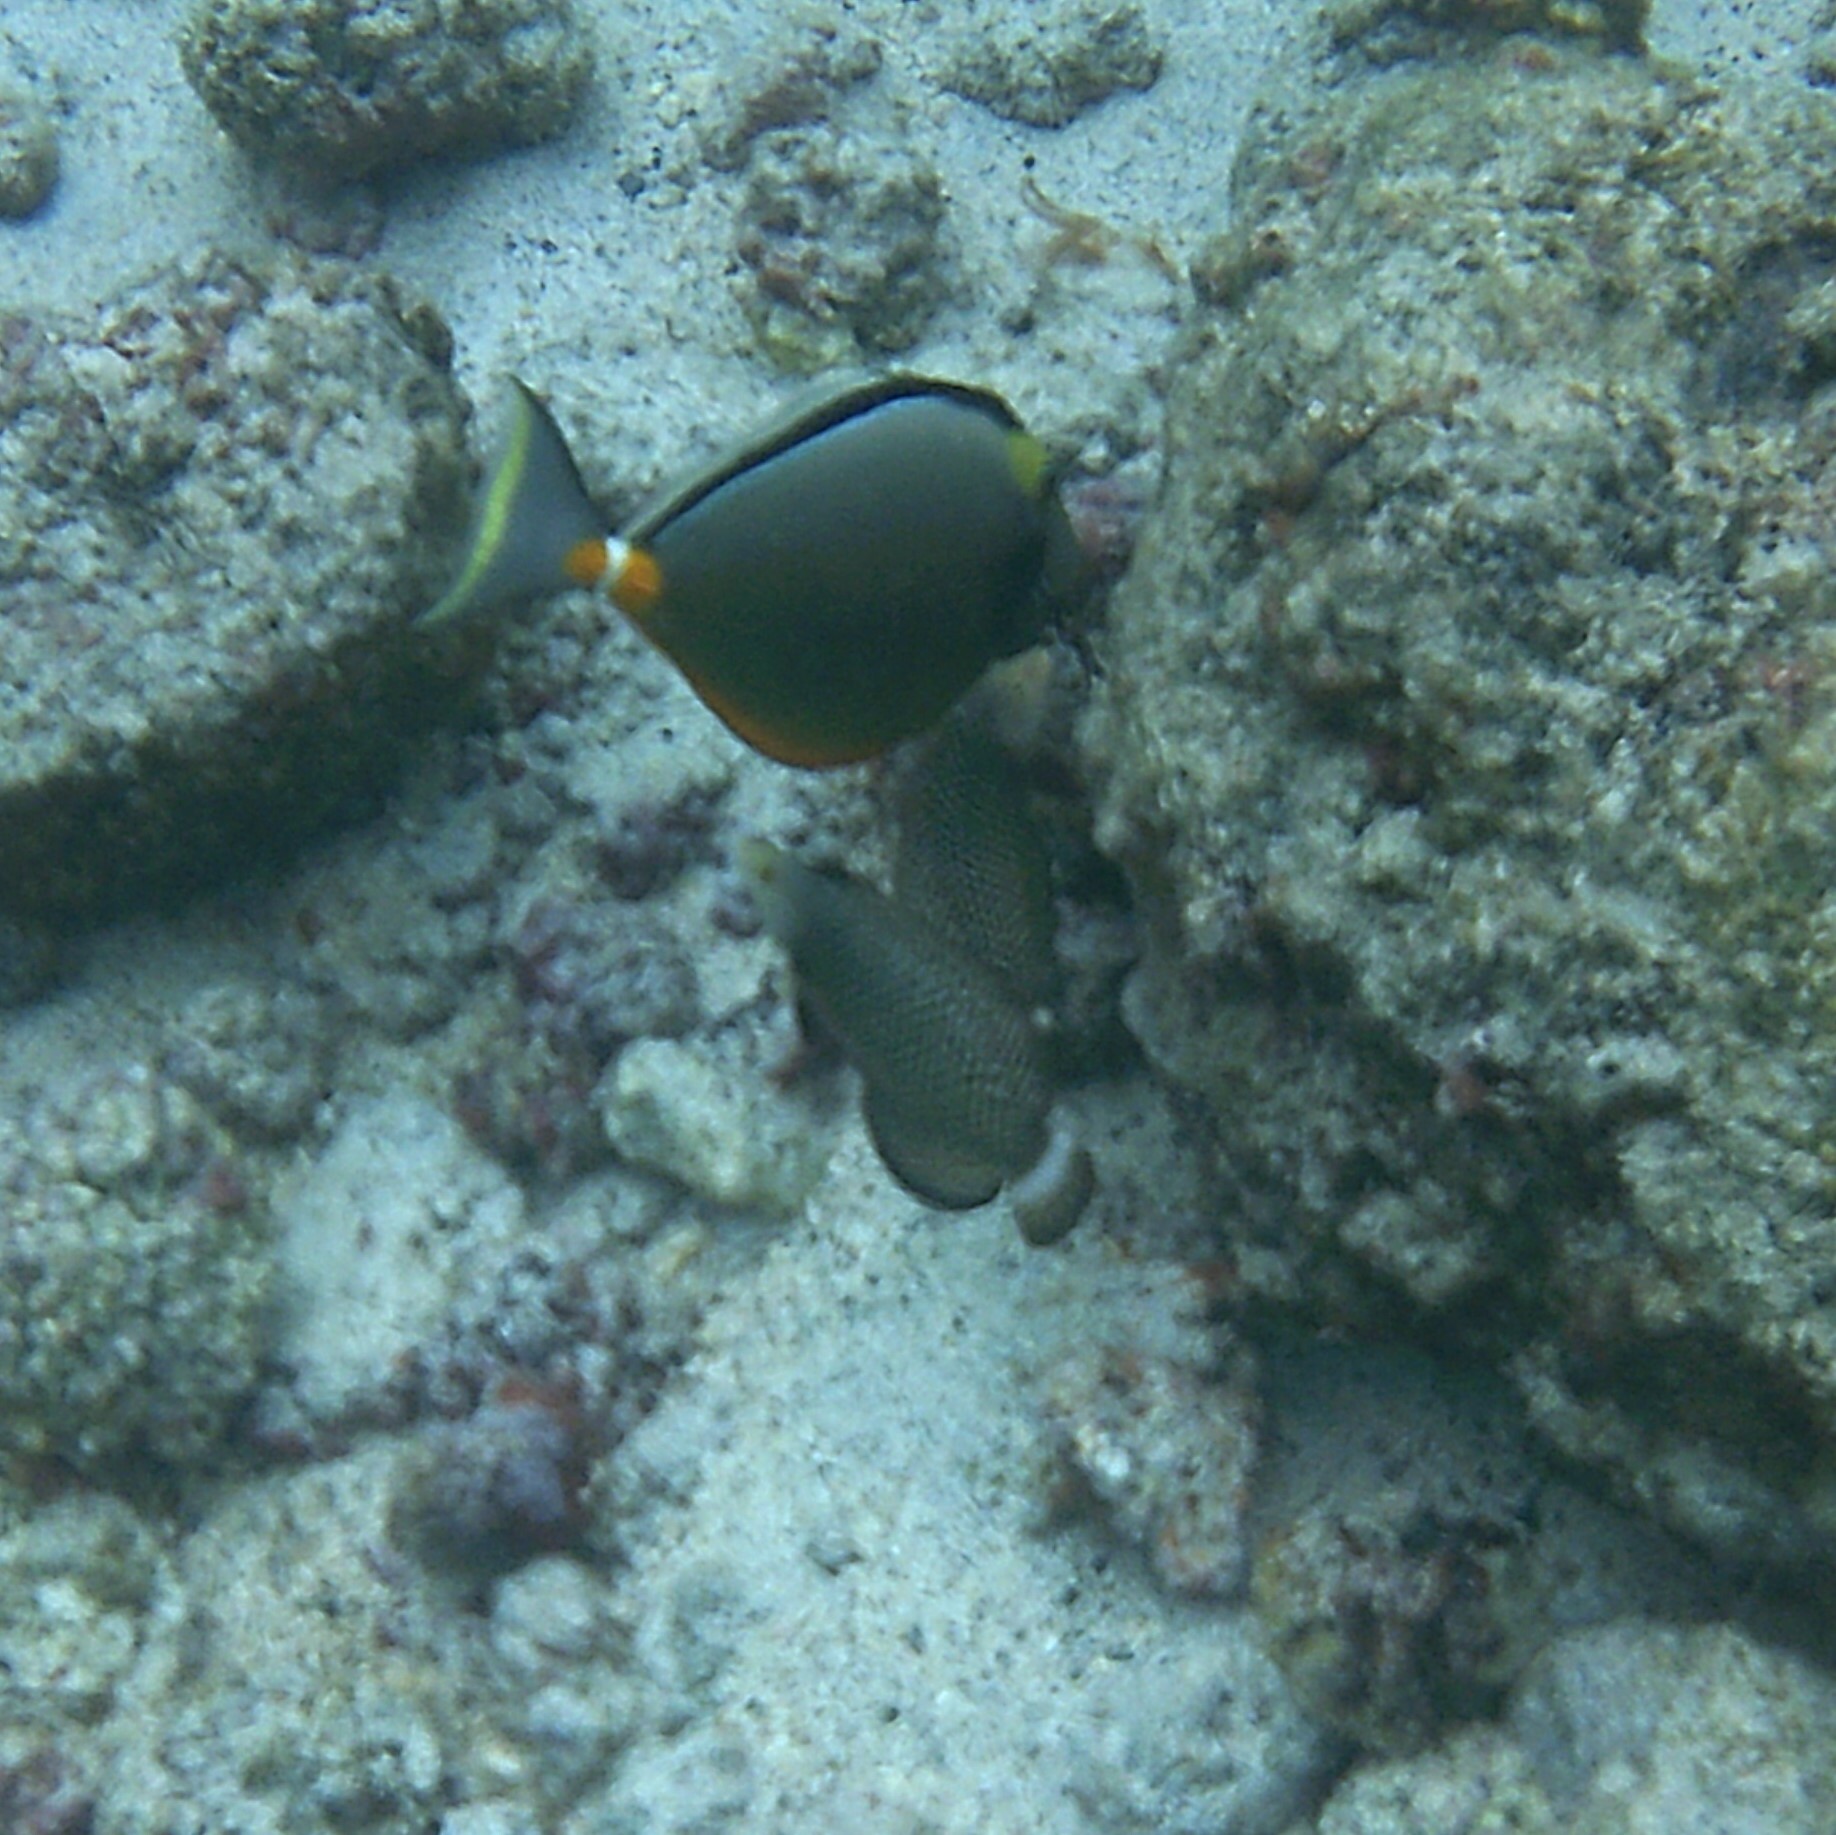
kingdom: Animalia
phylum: Chordata
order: Perciformes
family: Labridae
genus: Novaculichthys
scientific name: Novaculichthys taeniourus
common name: Rockmover wrasse
